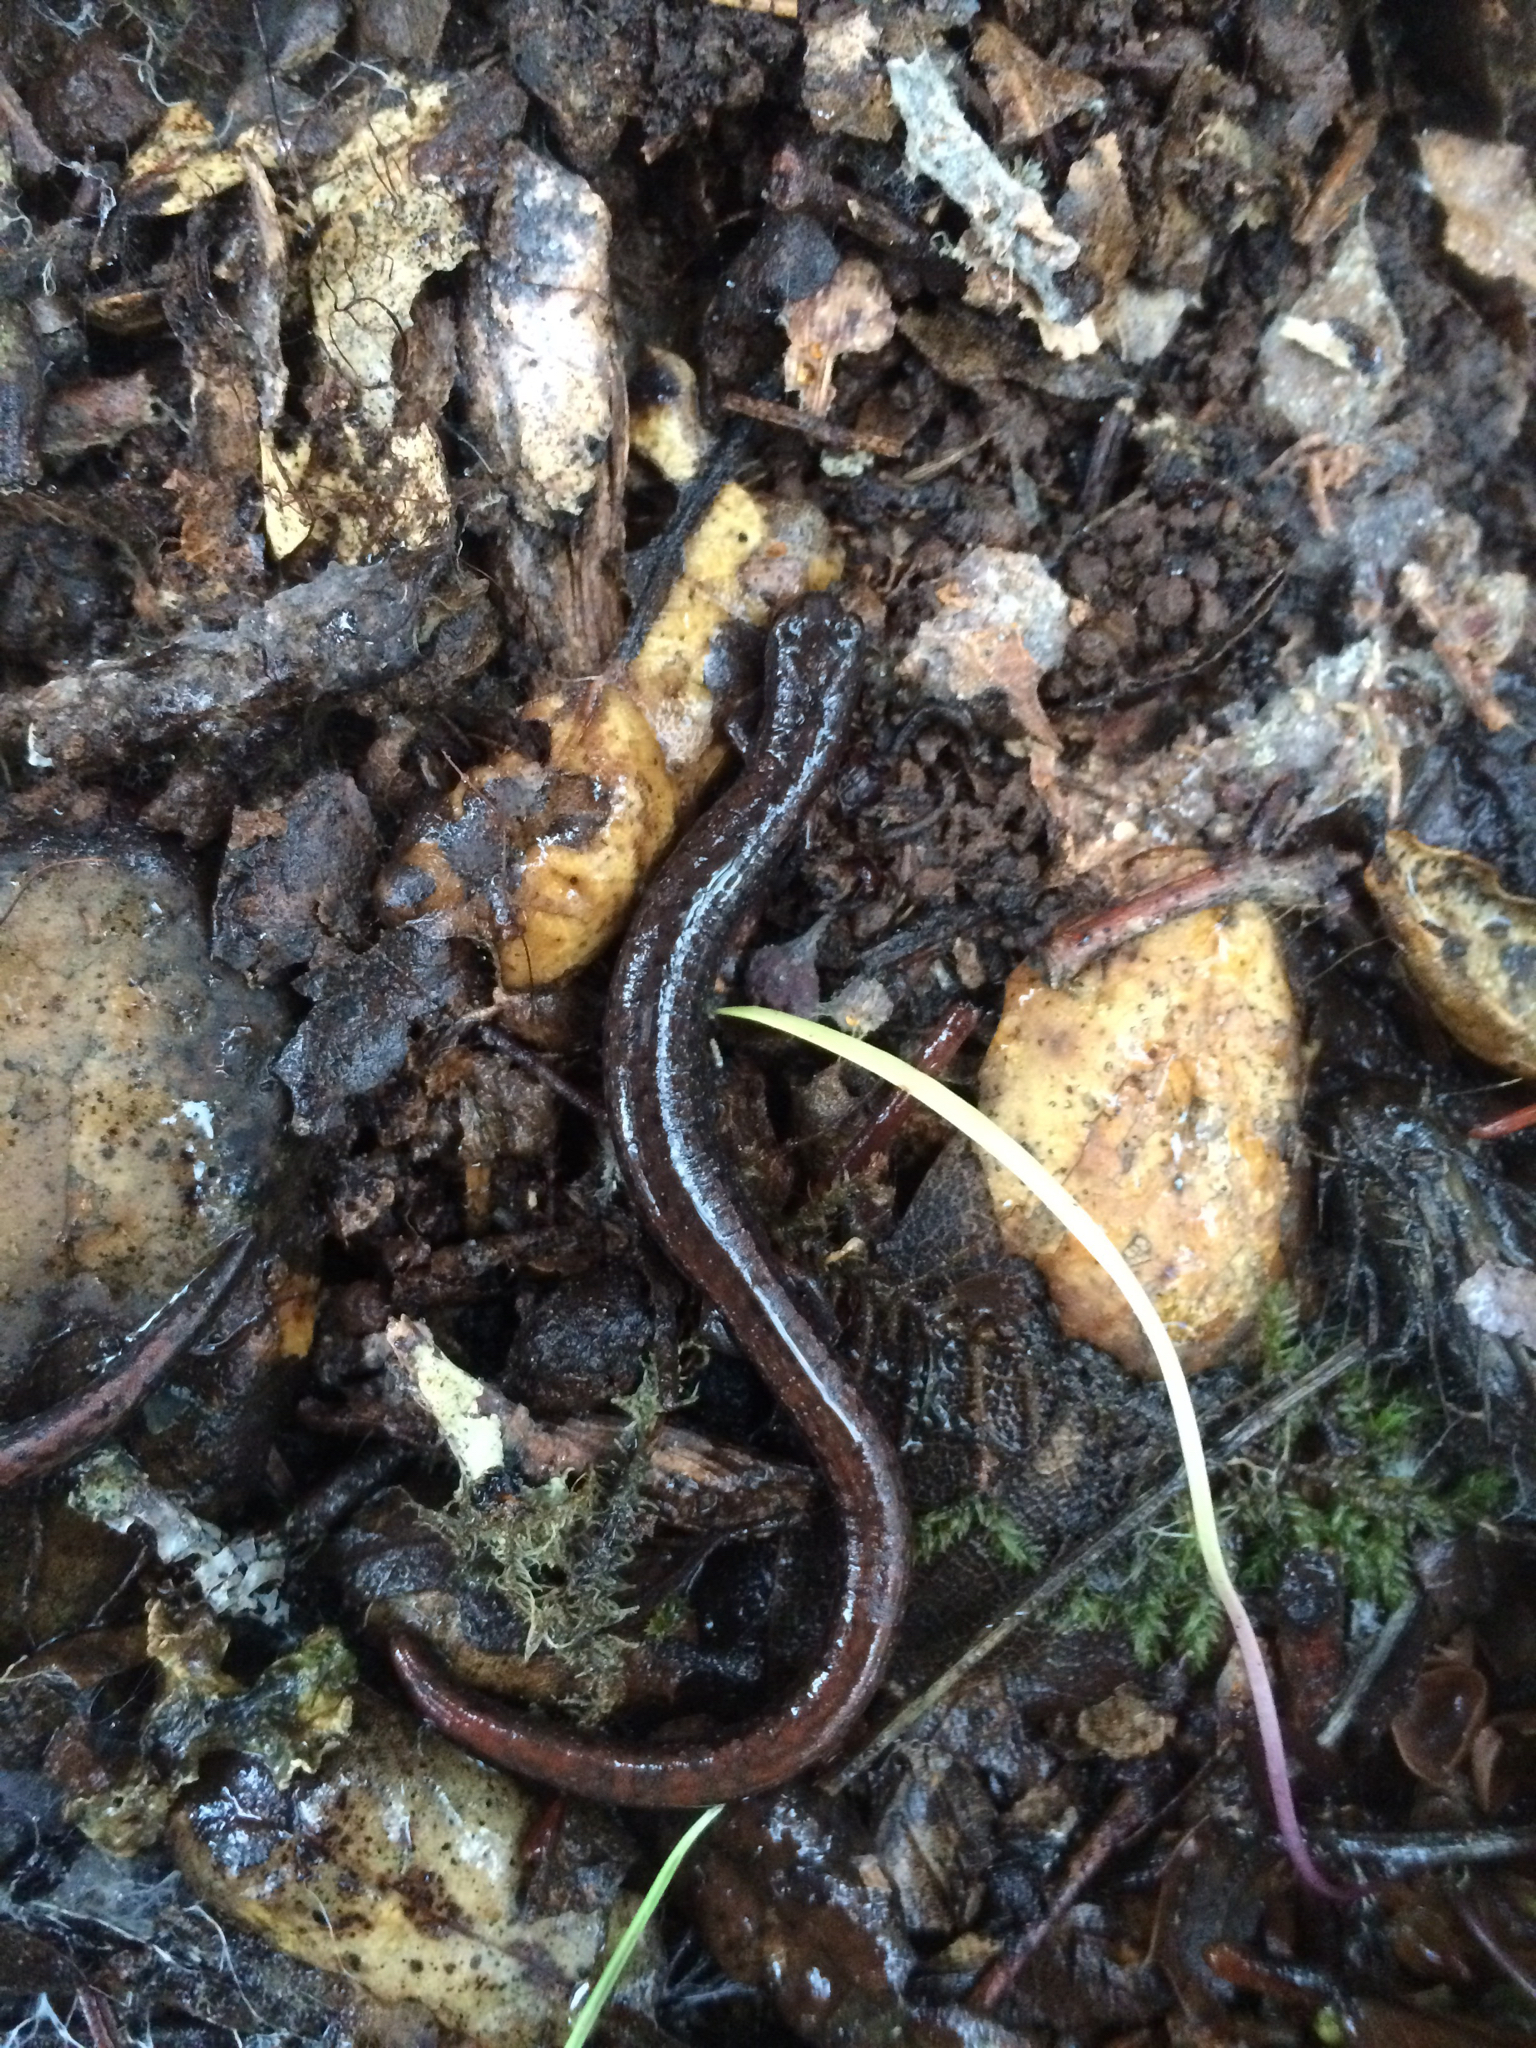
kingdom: Animalia
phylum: Chordata
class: Amphibia
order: Caudata
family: Plethodontidae
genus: Batrachoseps
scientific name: Batrachoseps attenuatus
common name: California slender salamander
